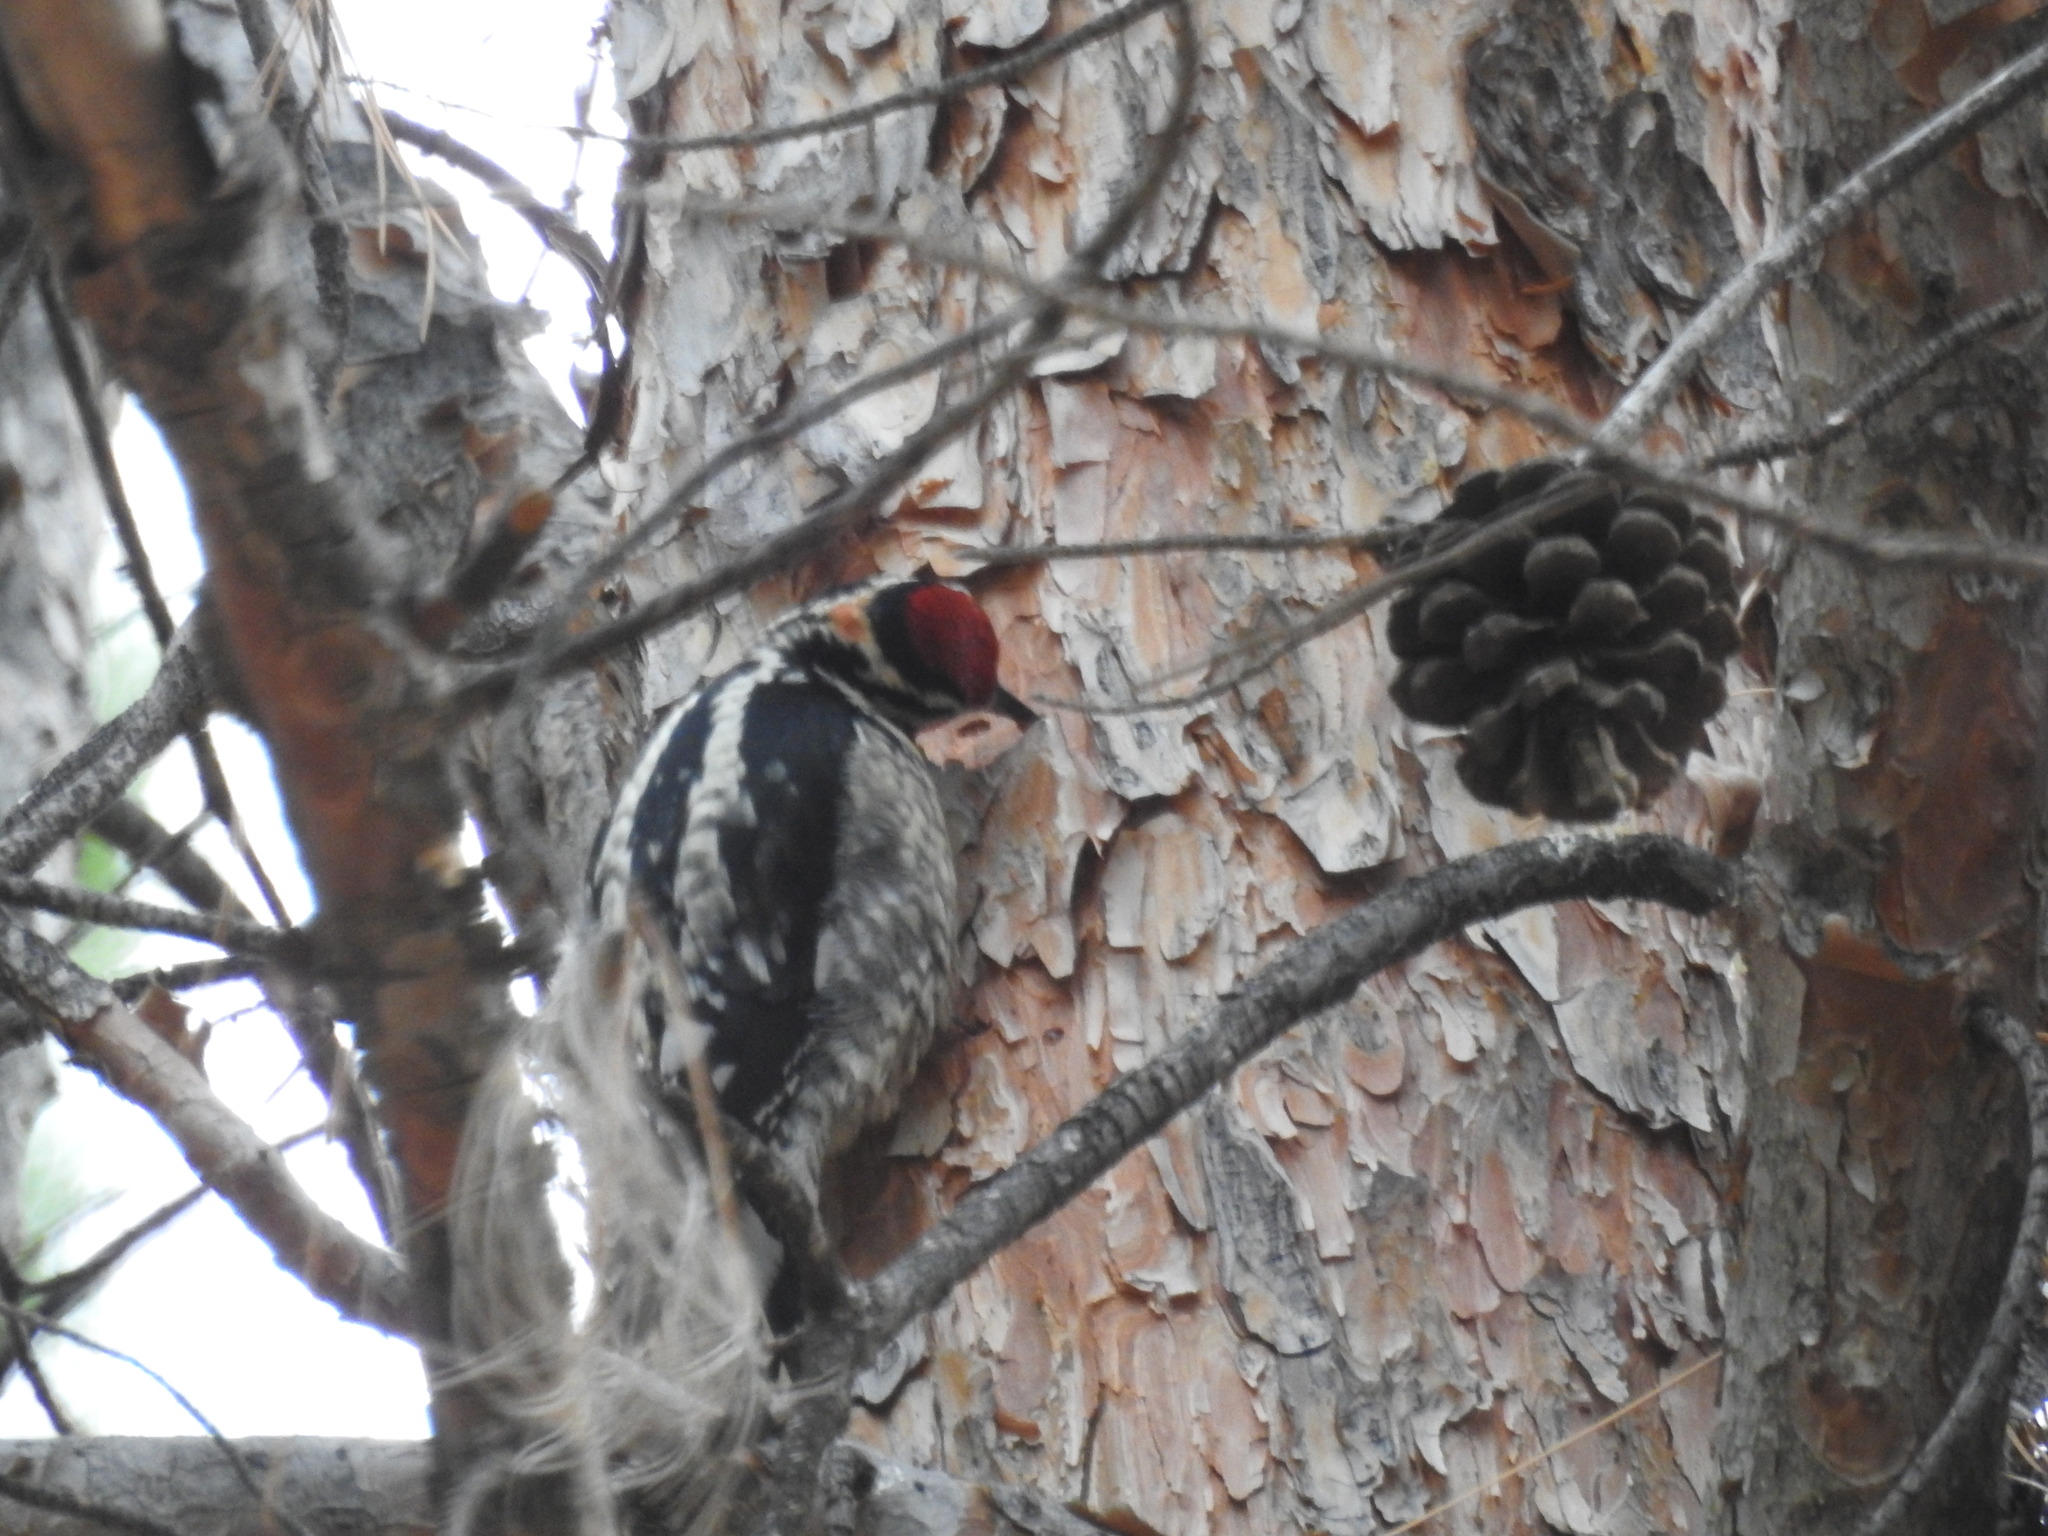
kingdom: Animalia
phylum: Chordata
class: Aves
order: Piciformes
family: Picidae
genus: Sphyrapicus
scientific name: Sphyrapicus nuchalis
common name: Red-naped sapsucker
